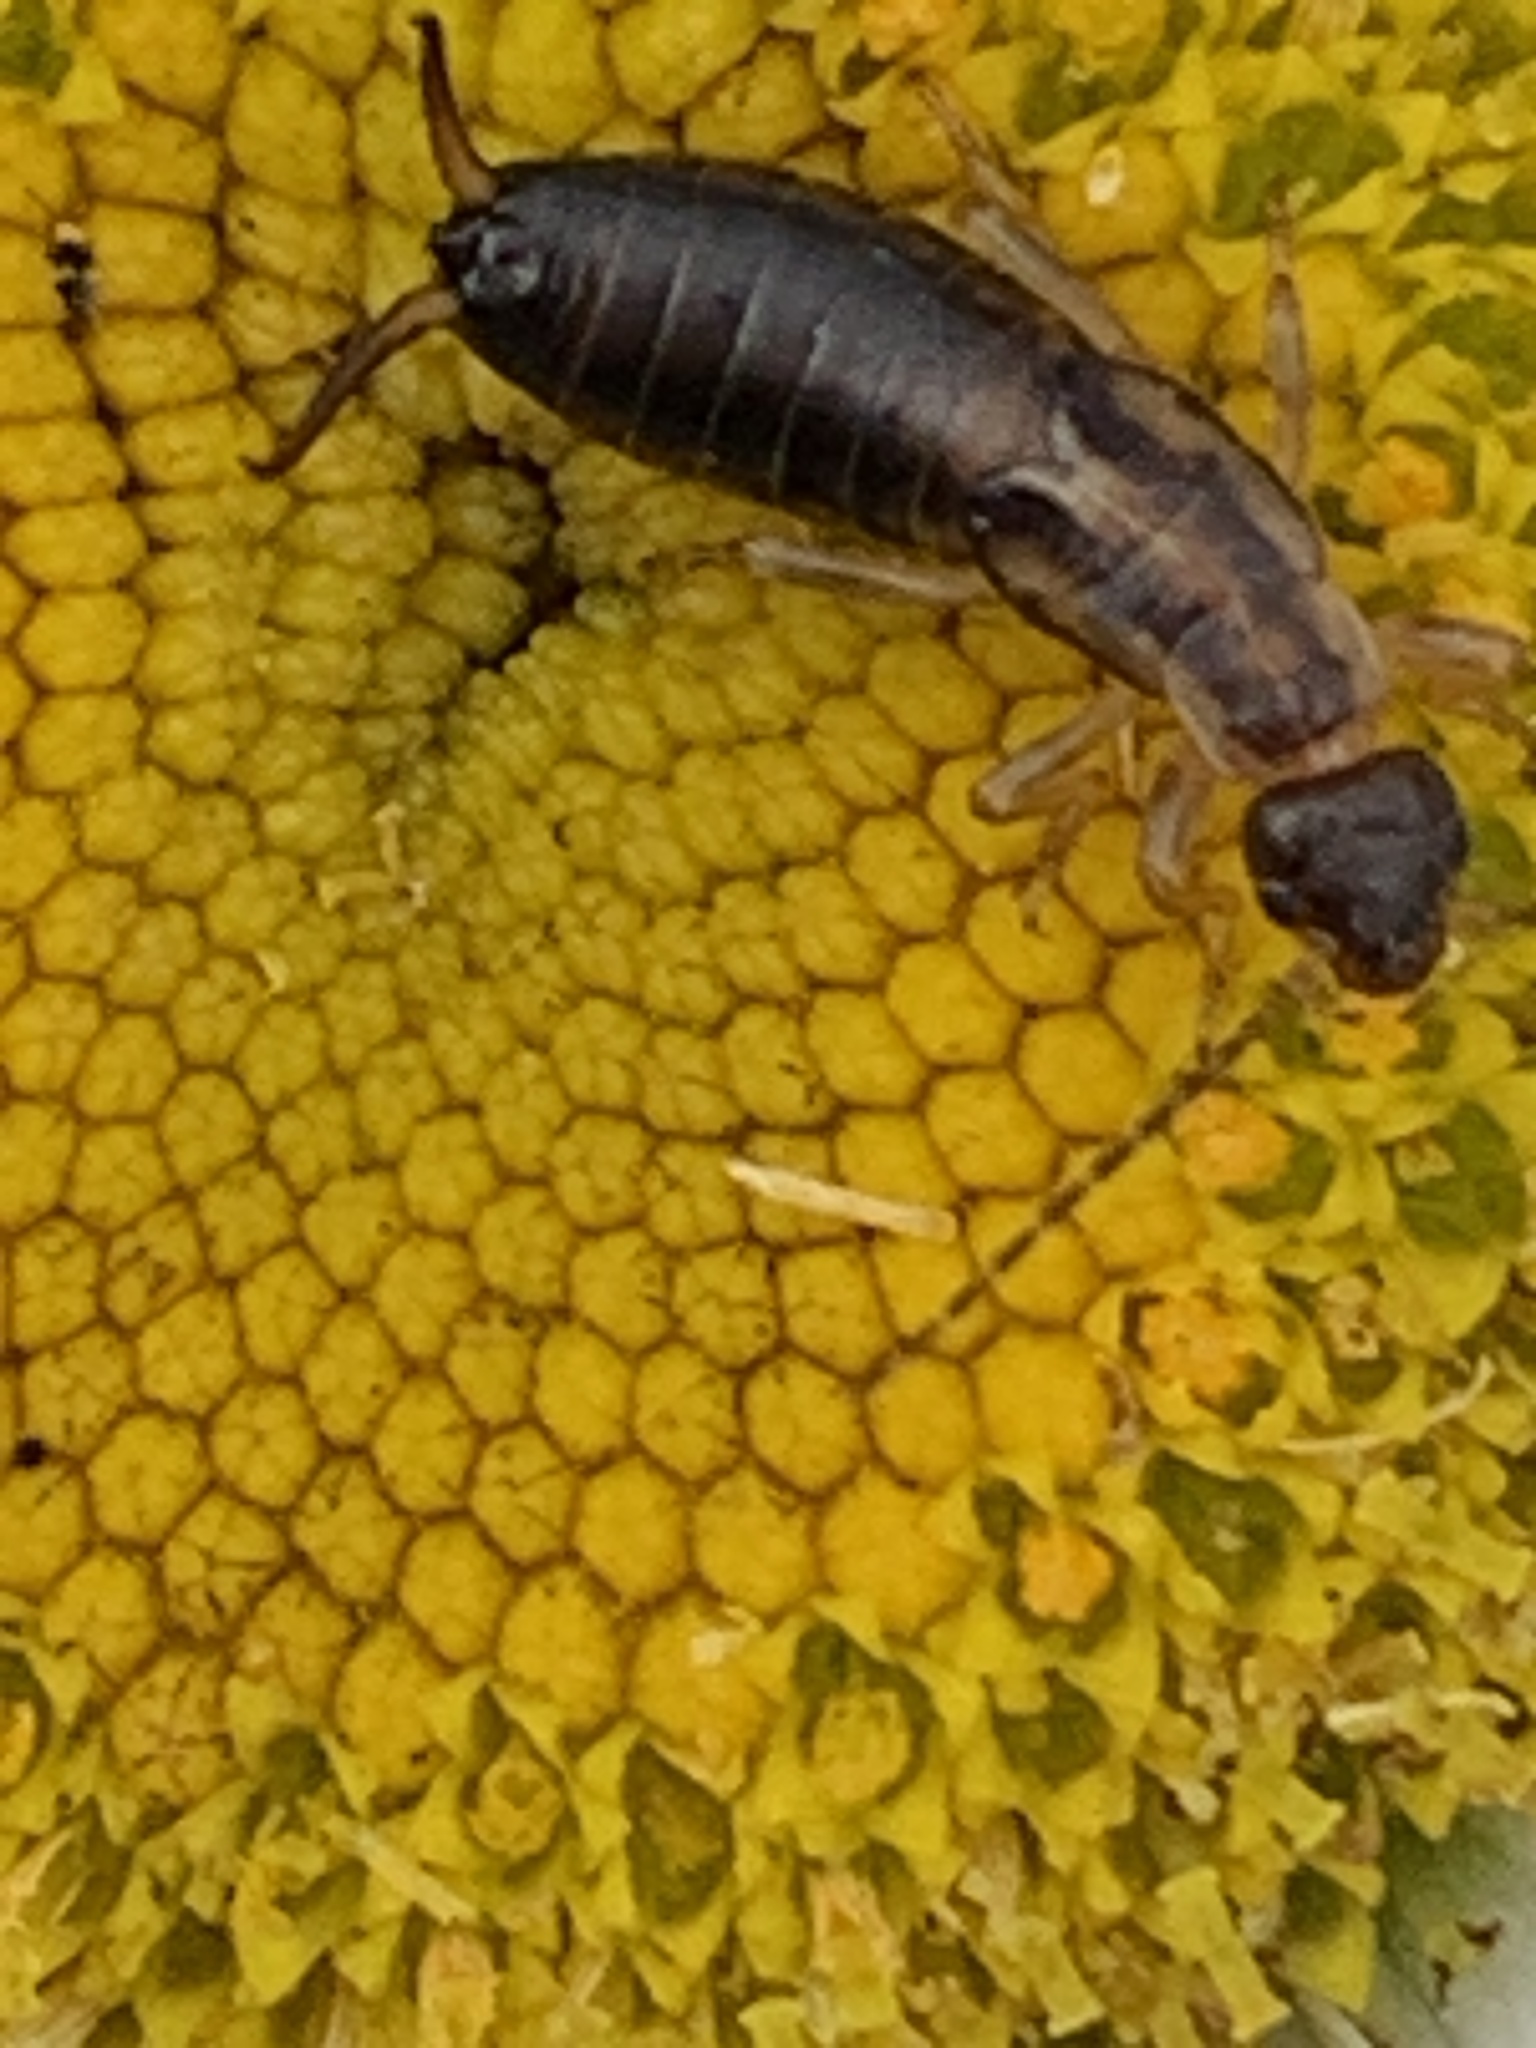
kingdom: Animalia
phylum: Arthropoda
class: Insecta
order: Dermaptera
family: Forficulidae
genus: Forficula
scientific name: Forficula
